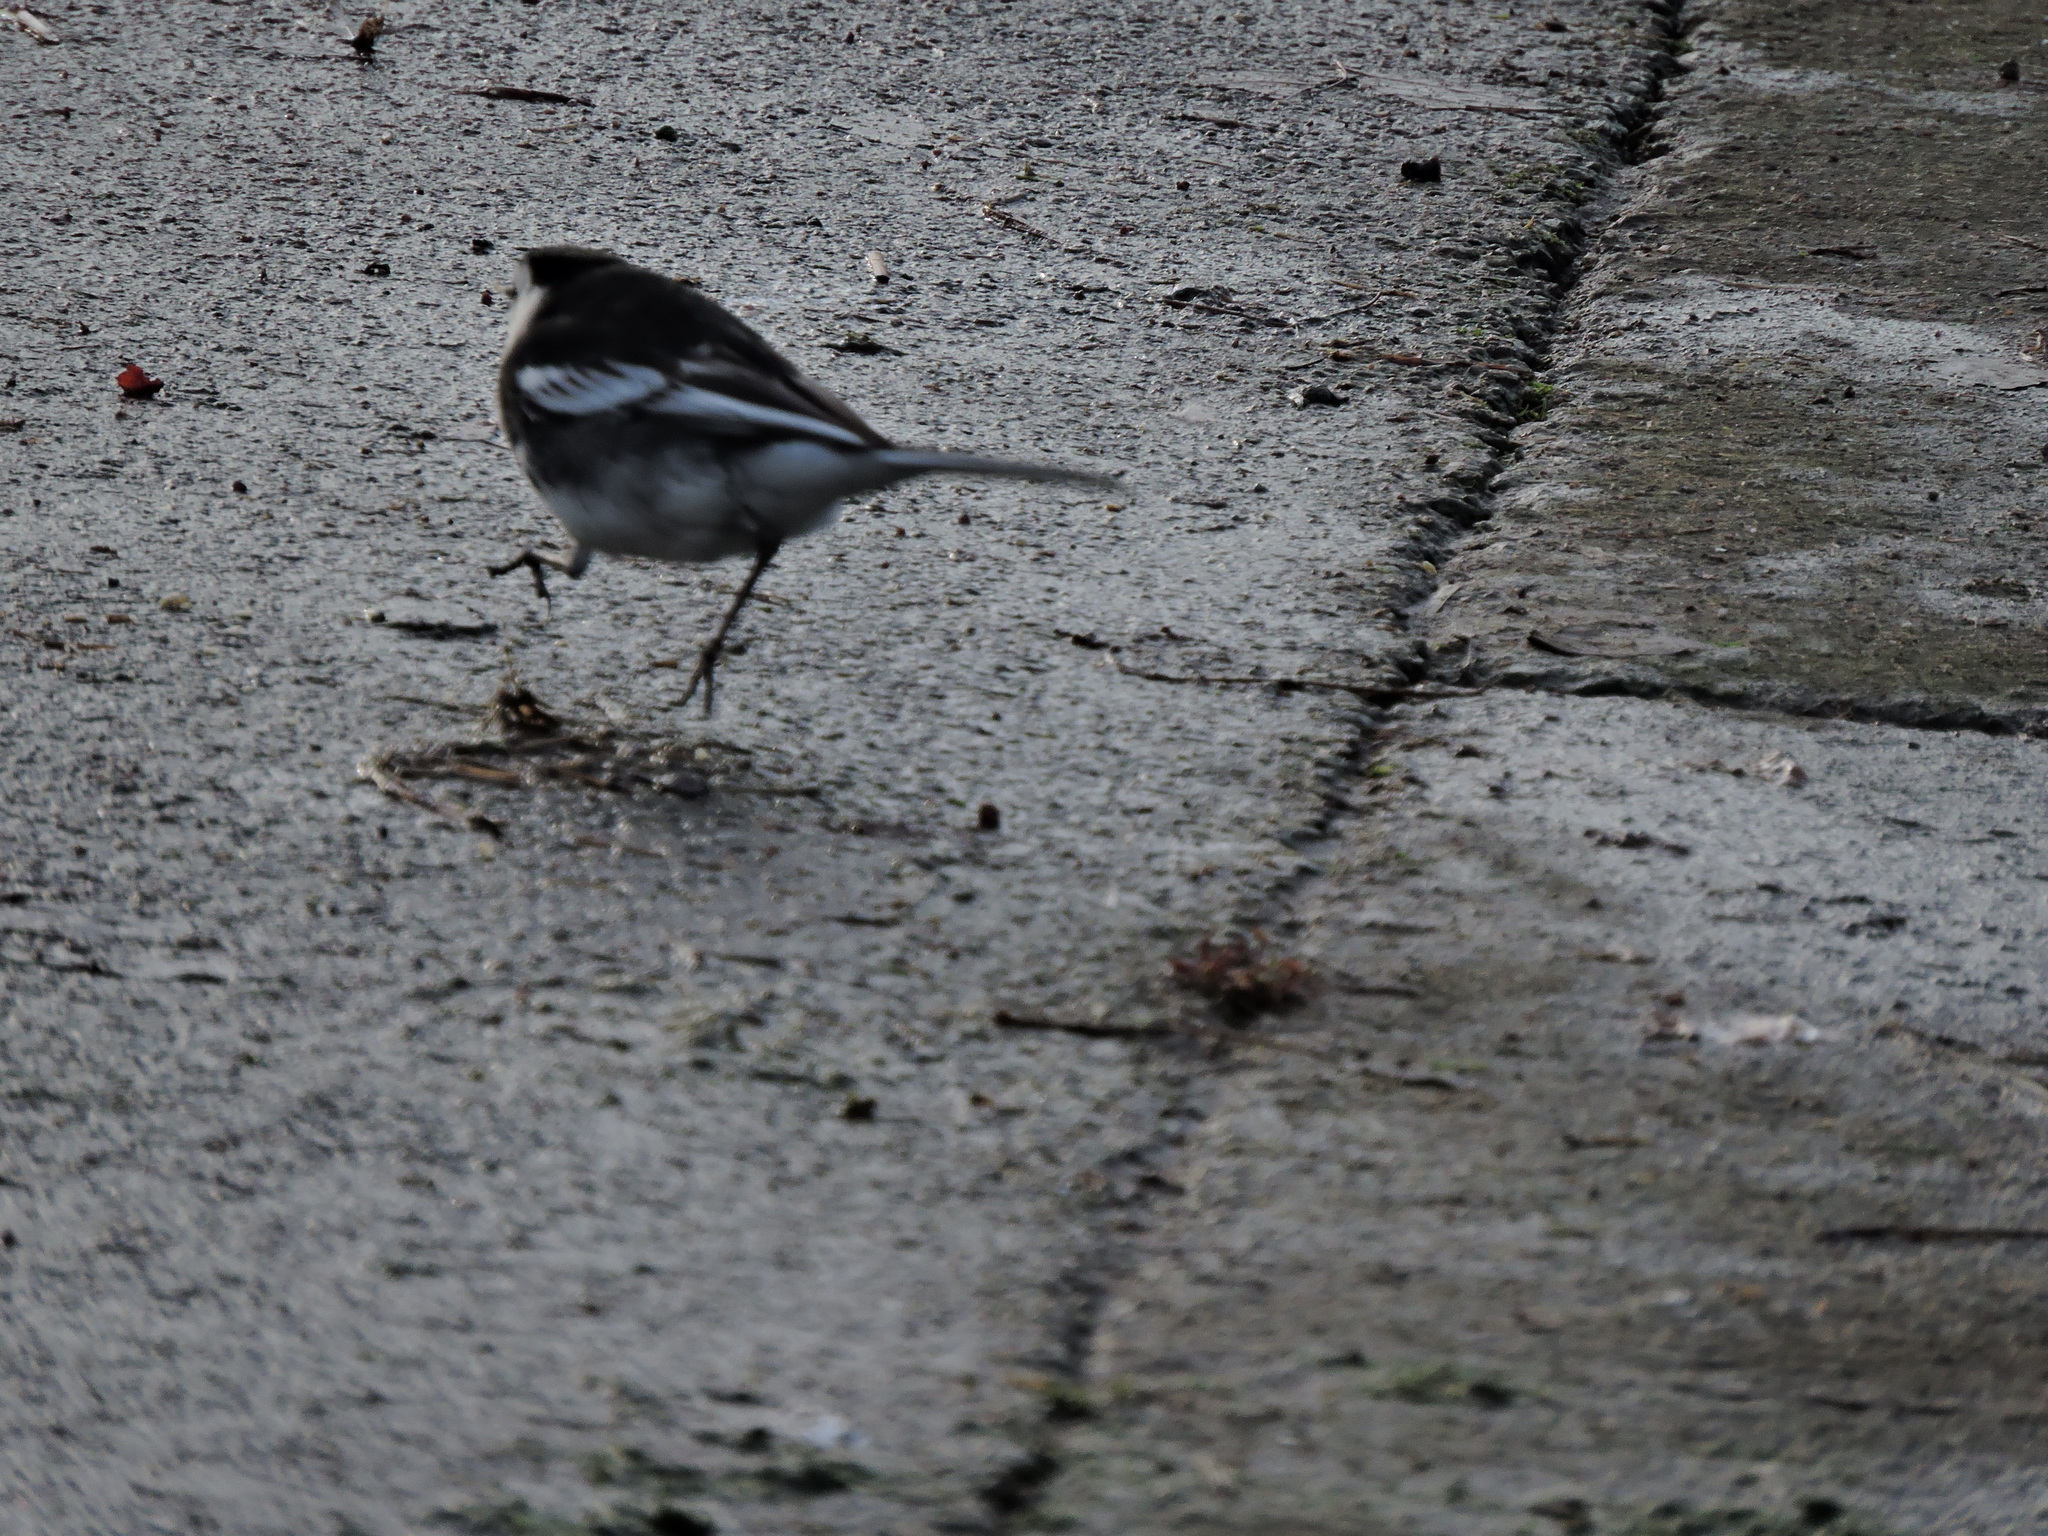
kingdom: Animalia
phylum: Chordata
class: Aves
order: Passeriformes
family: Motacillidae
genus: Motacilla
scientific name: Motacilla alba
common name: White wagtail
